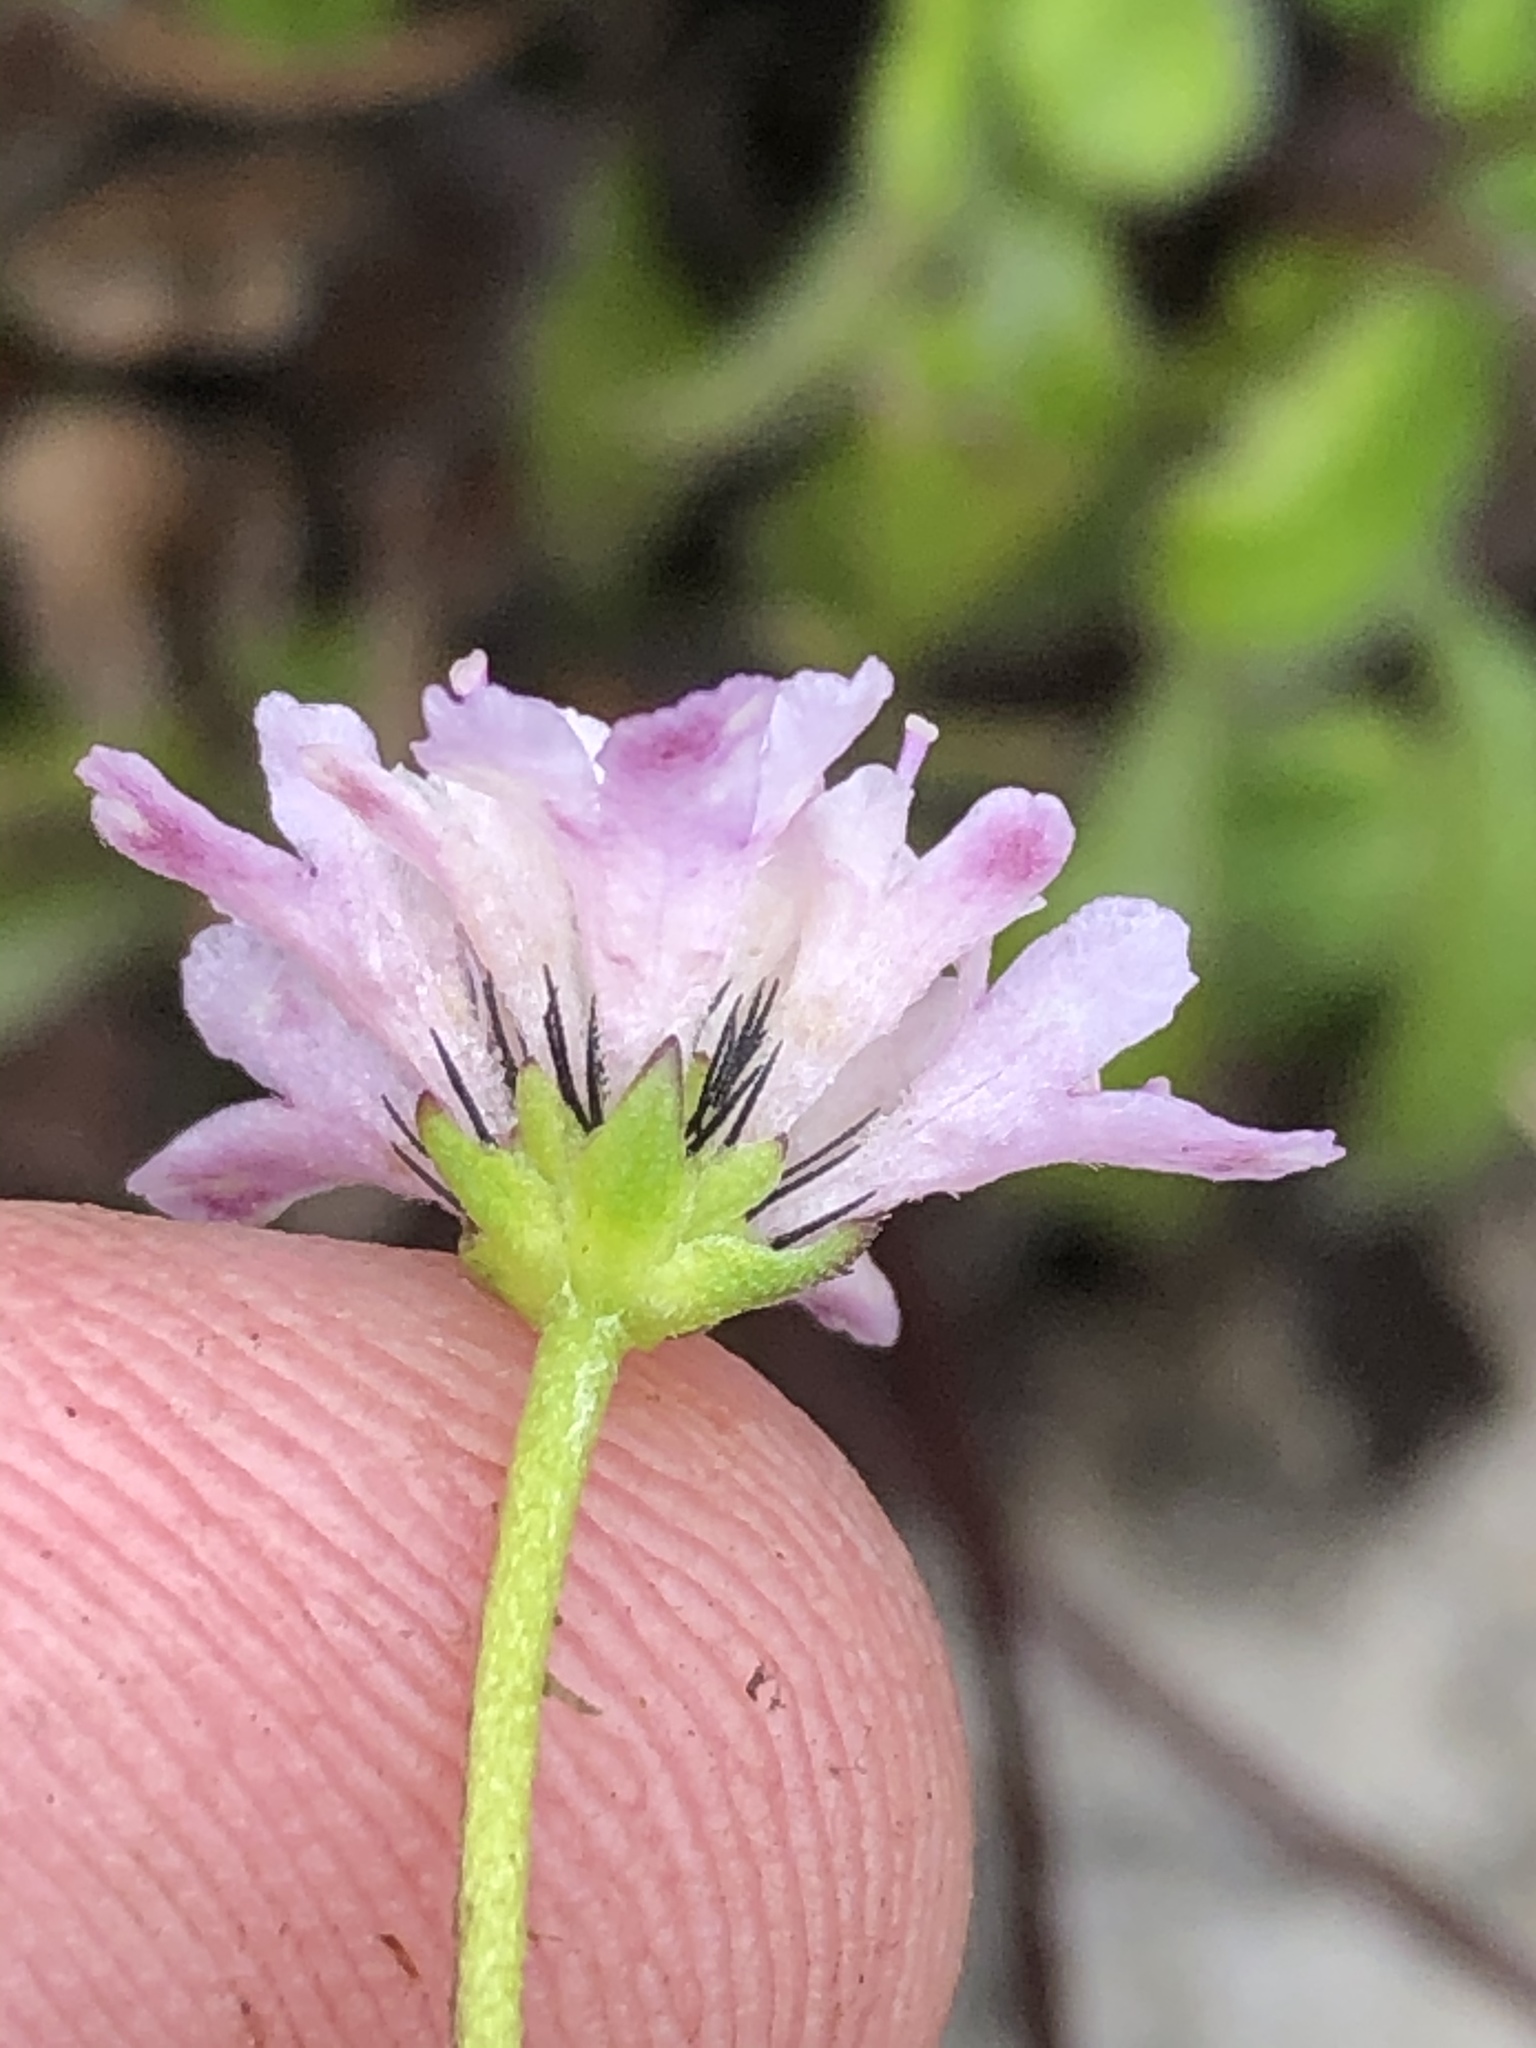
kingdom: Plantae
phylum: Tracheophyta
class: Magnoliopsida
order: Dipsacales
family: Caprifoliaceae
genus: Scabiosa
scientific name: Scabiosa columbaria
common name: Small scabious
